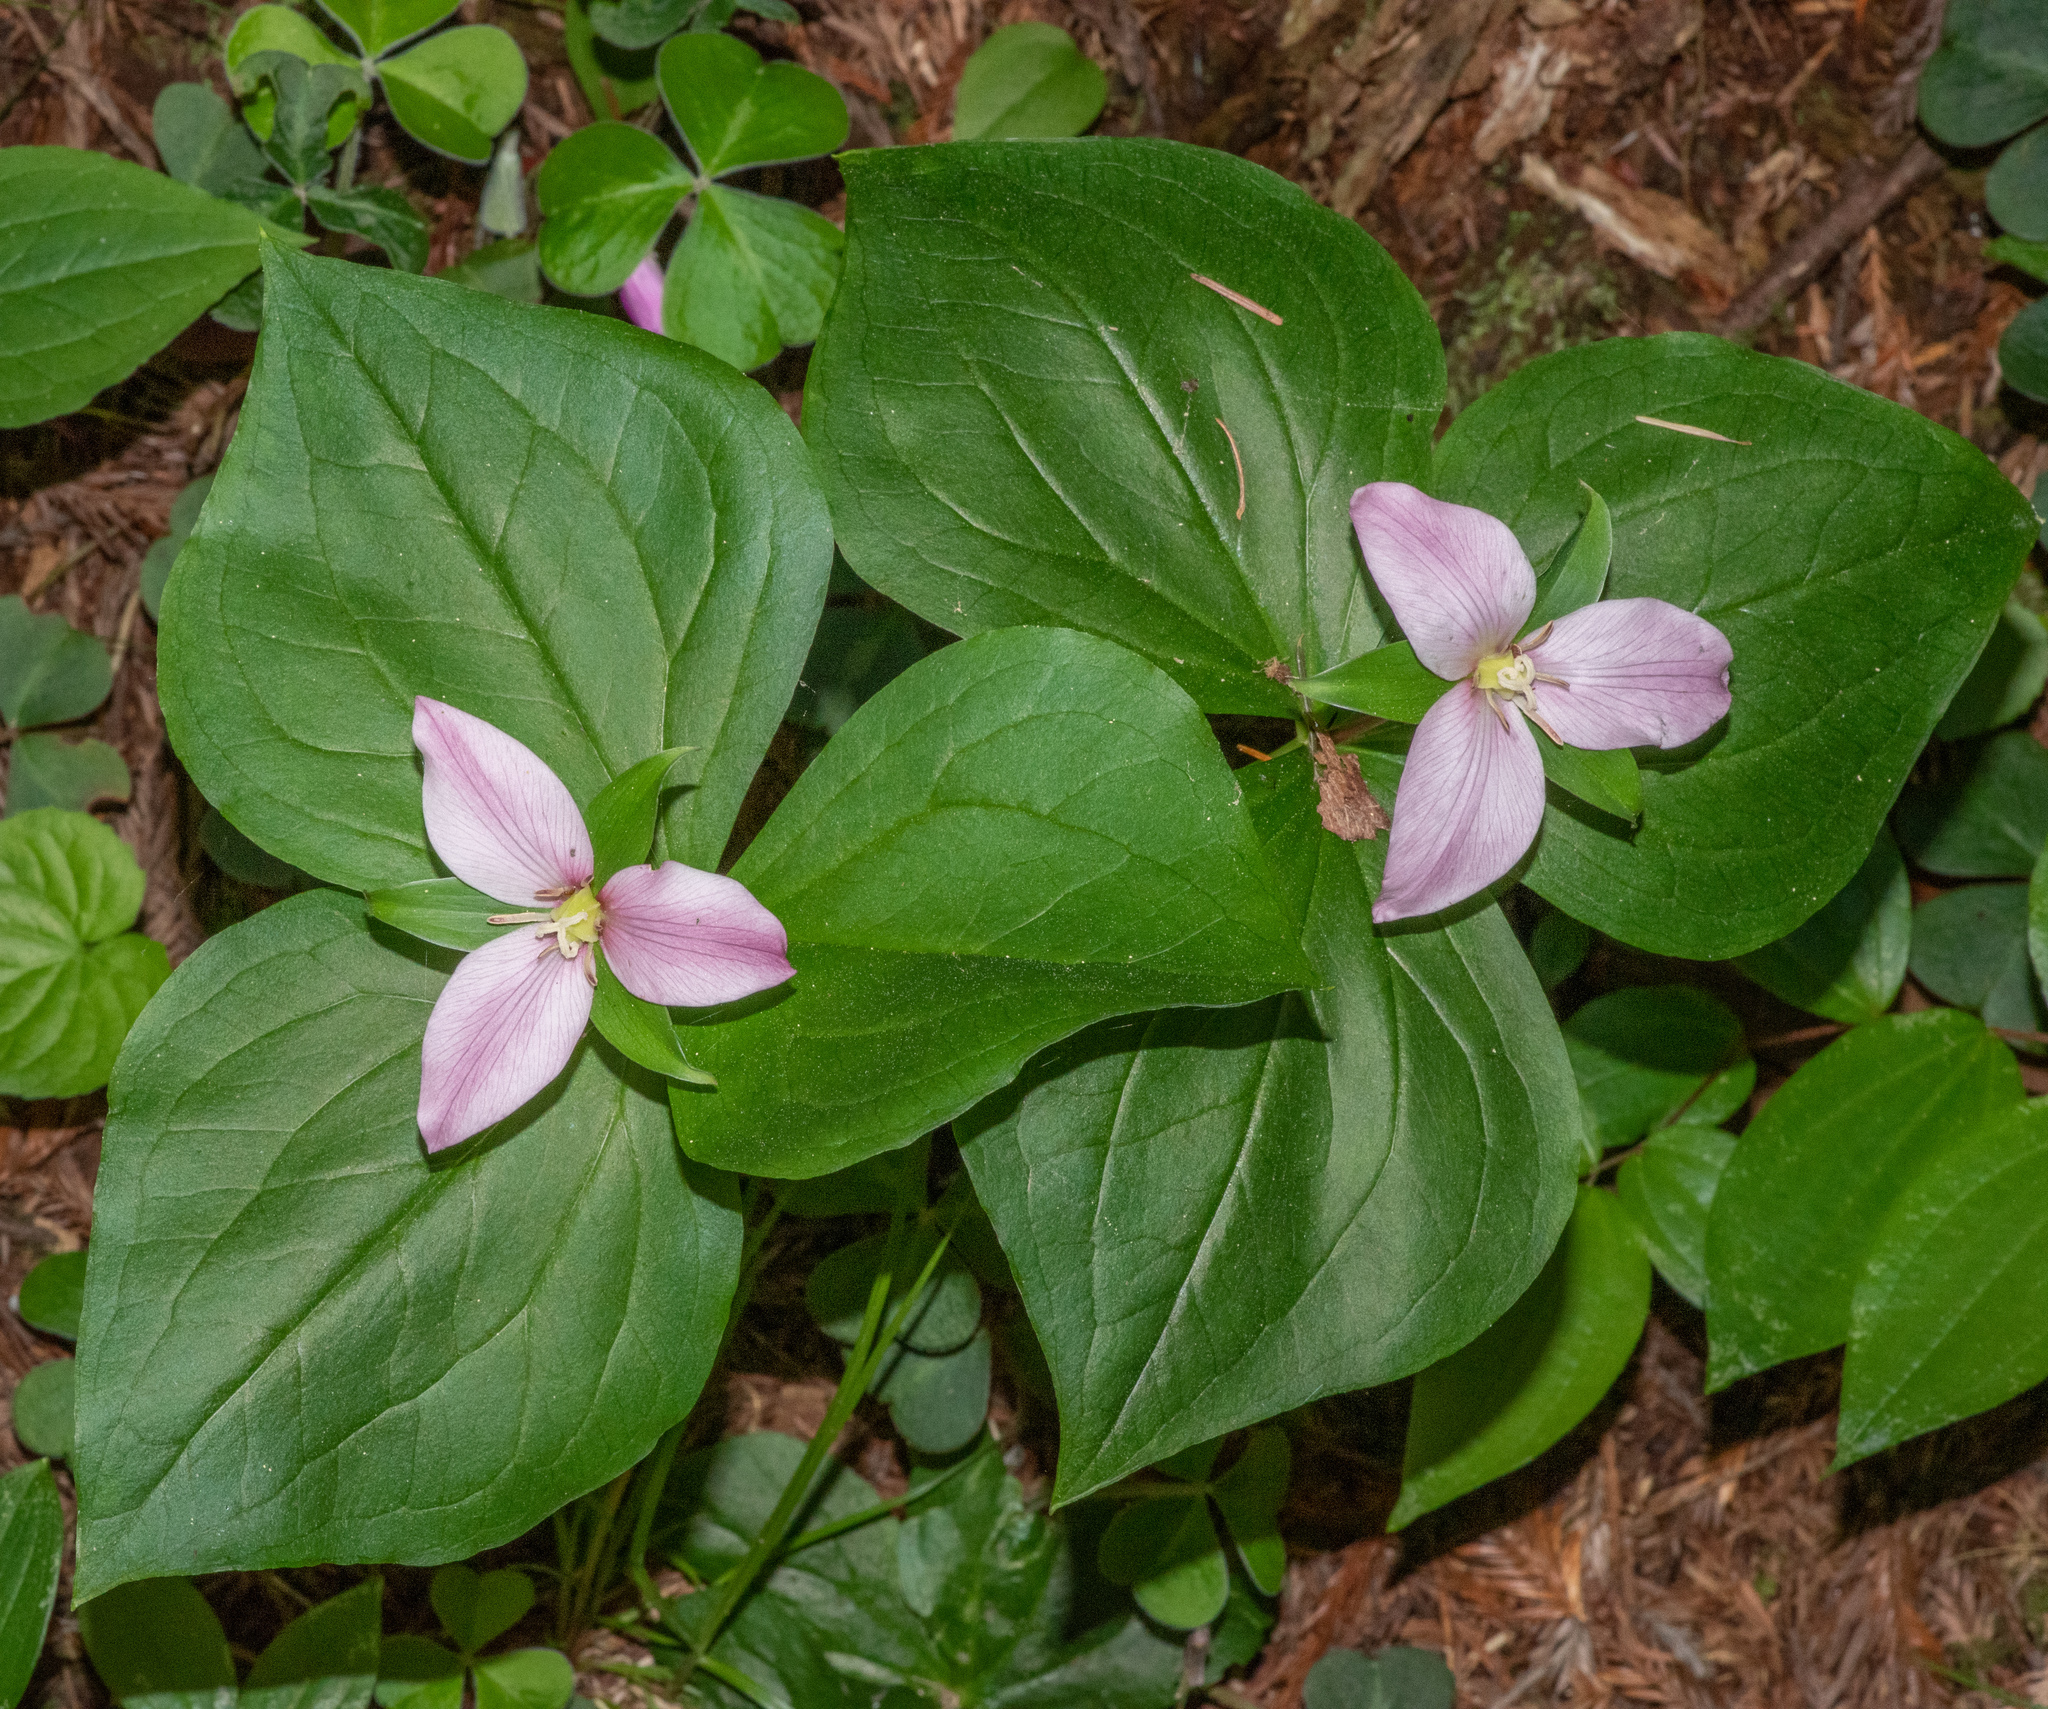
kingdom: Plantae
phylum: Tracheophyta
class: Liliopsida
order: Liliales
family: Melanthiaceae
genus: Trillium
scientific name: Trillium ovatum
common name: Pacific trillium
